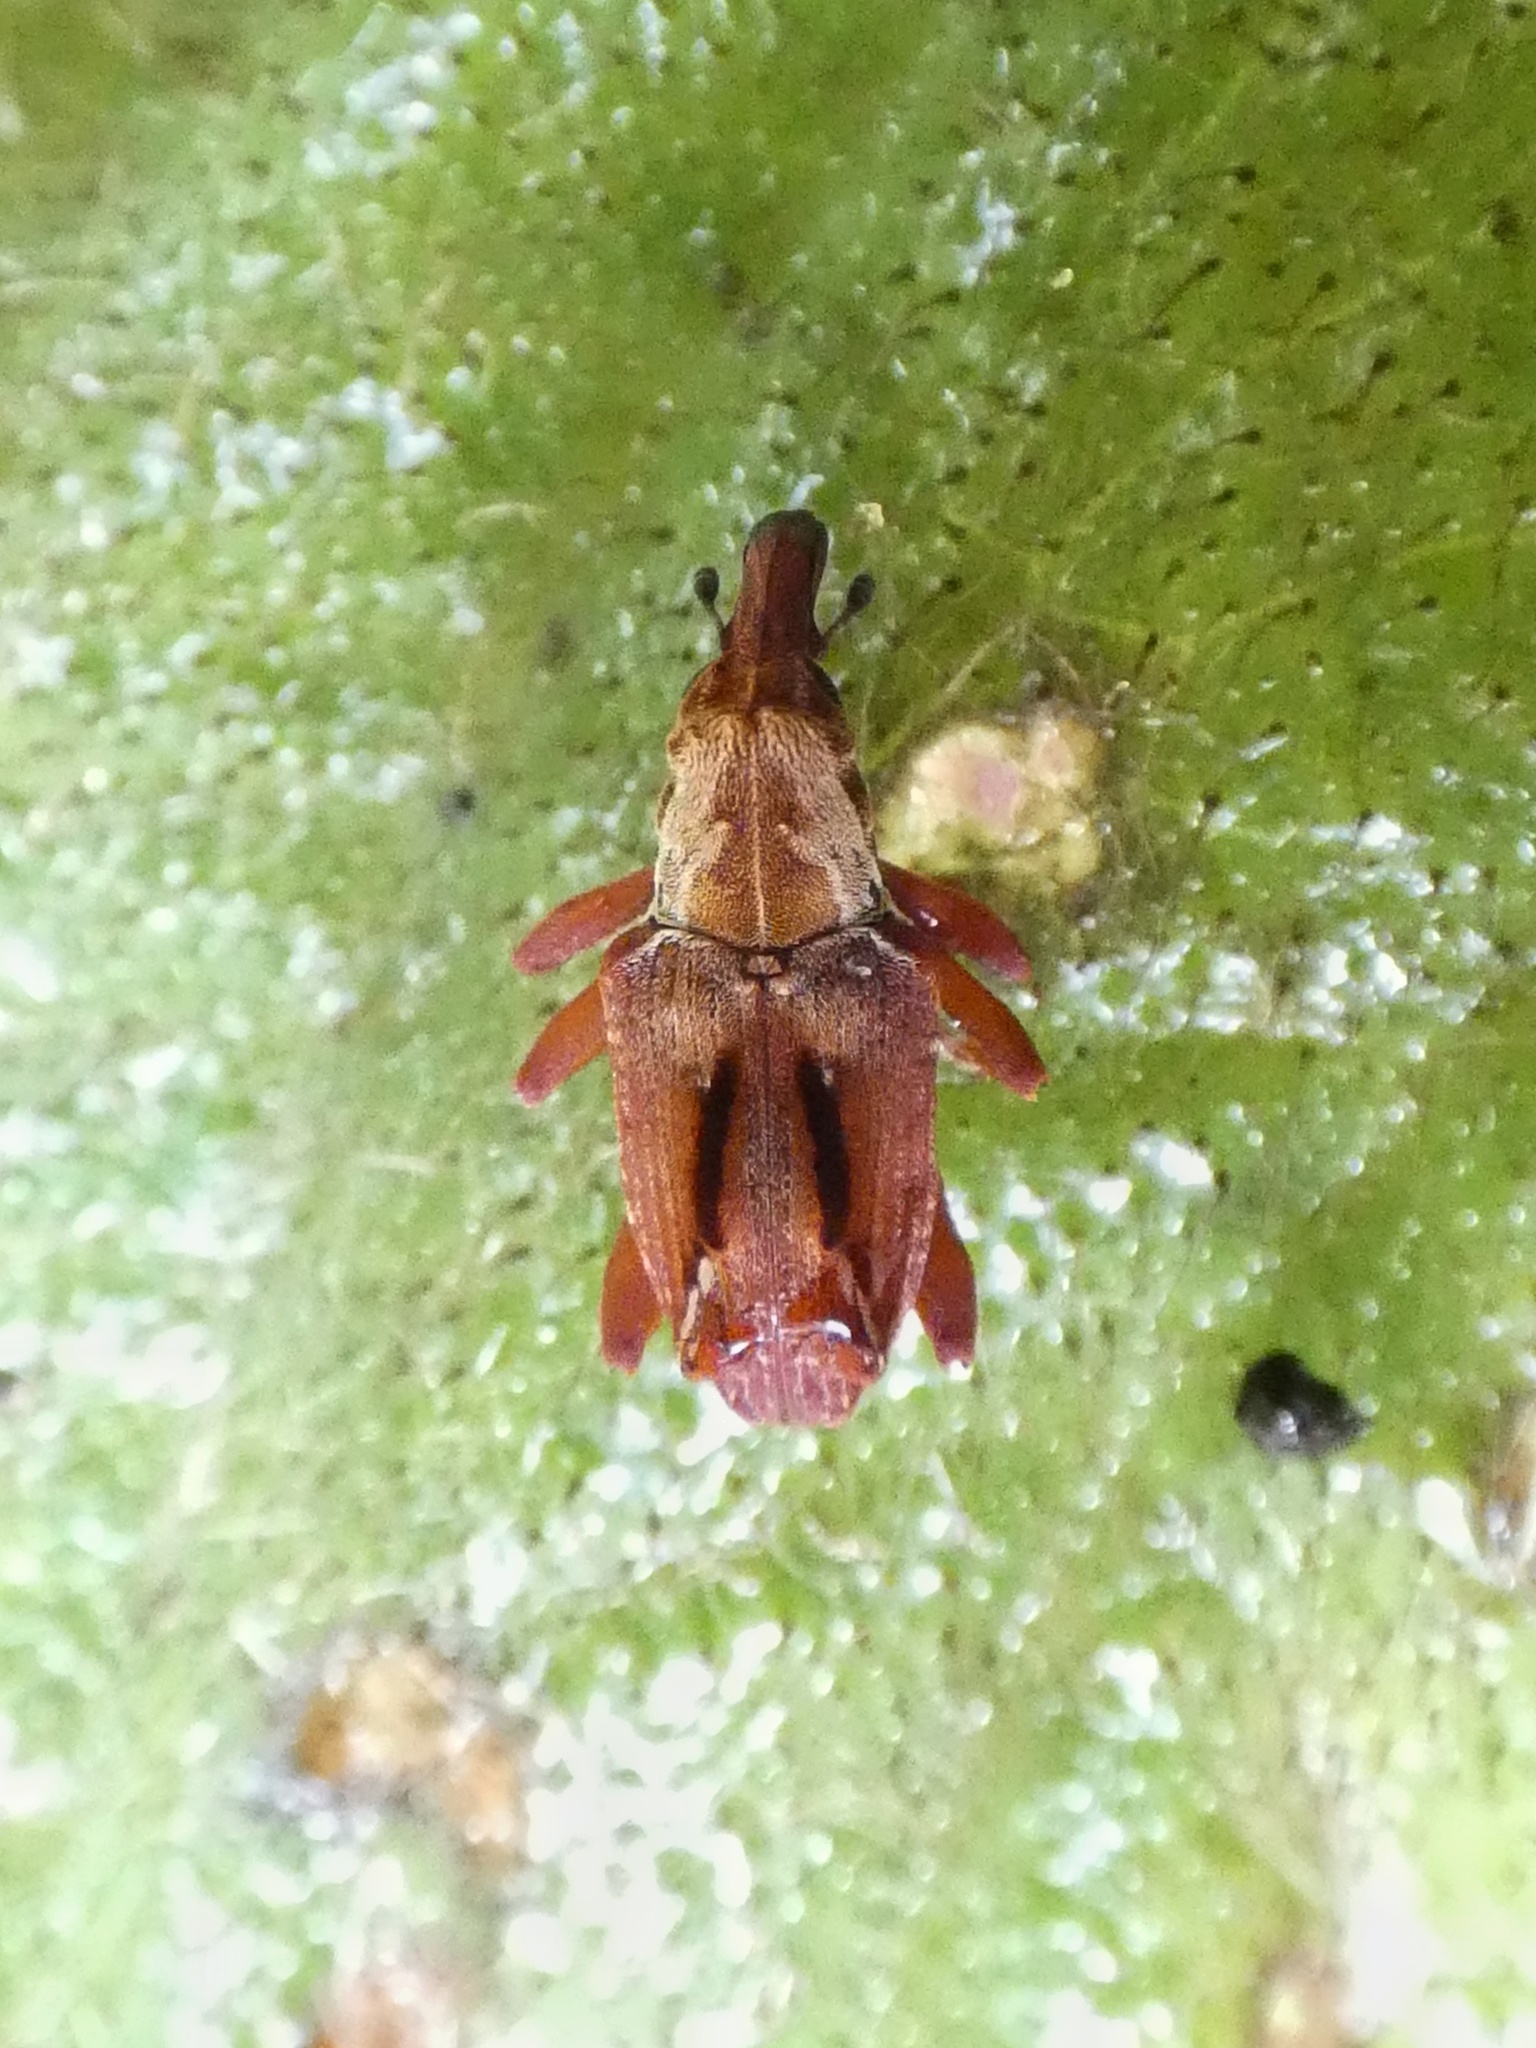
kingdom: Animalia
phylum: Arthropoda
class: Insecta
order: Coleoptera
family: Curculionidae
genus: Palliolatrix
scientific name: Palliolatrix tuberosa
